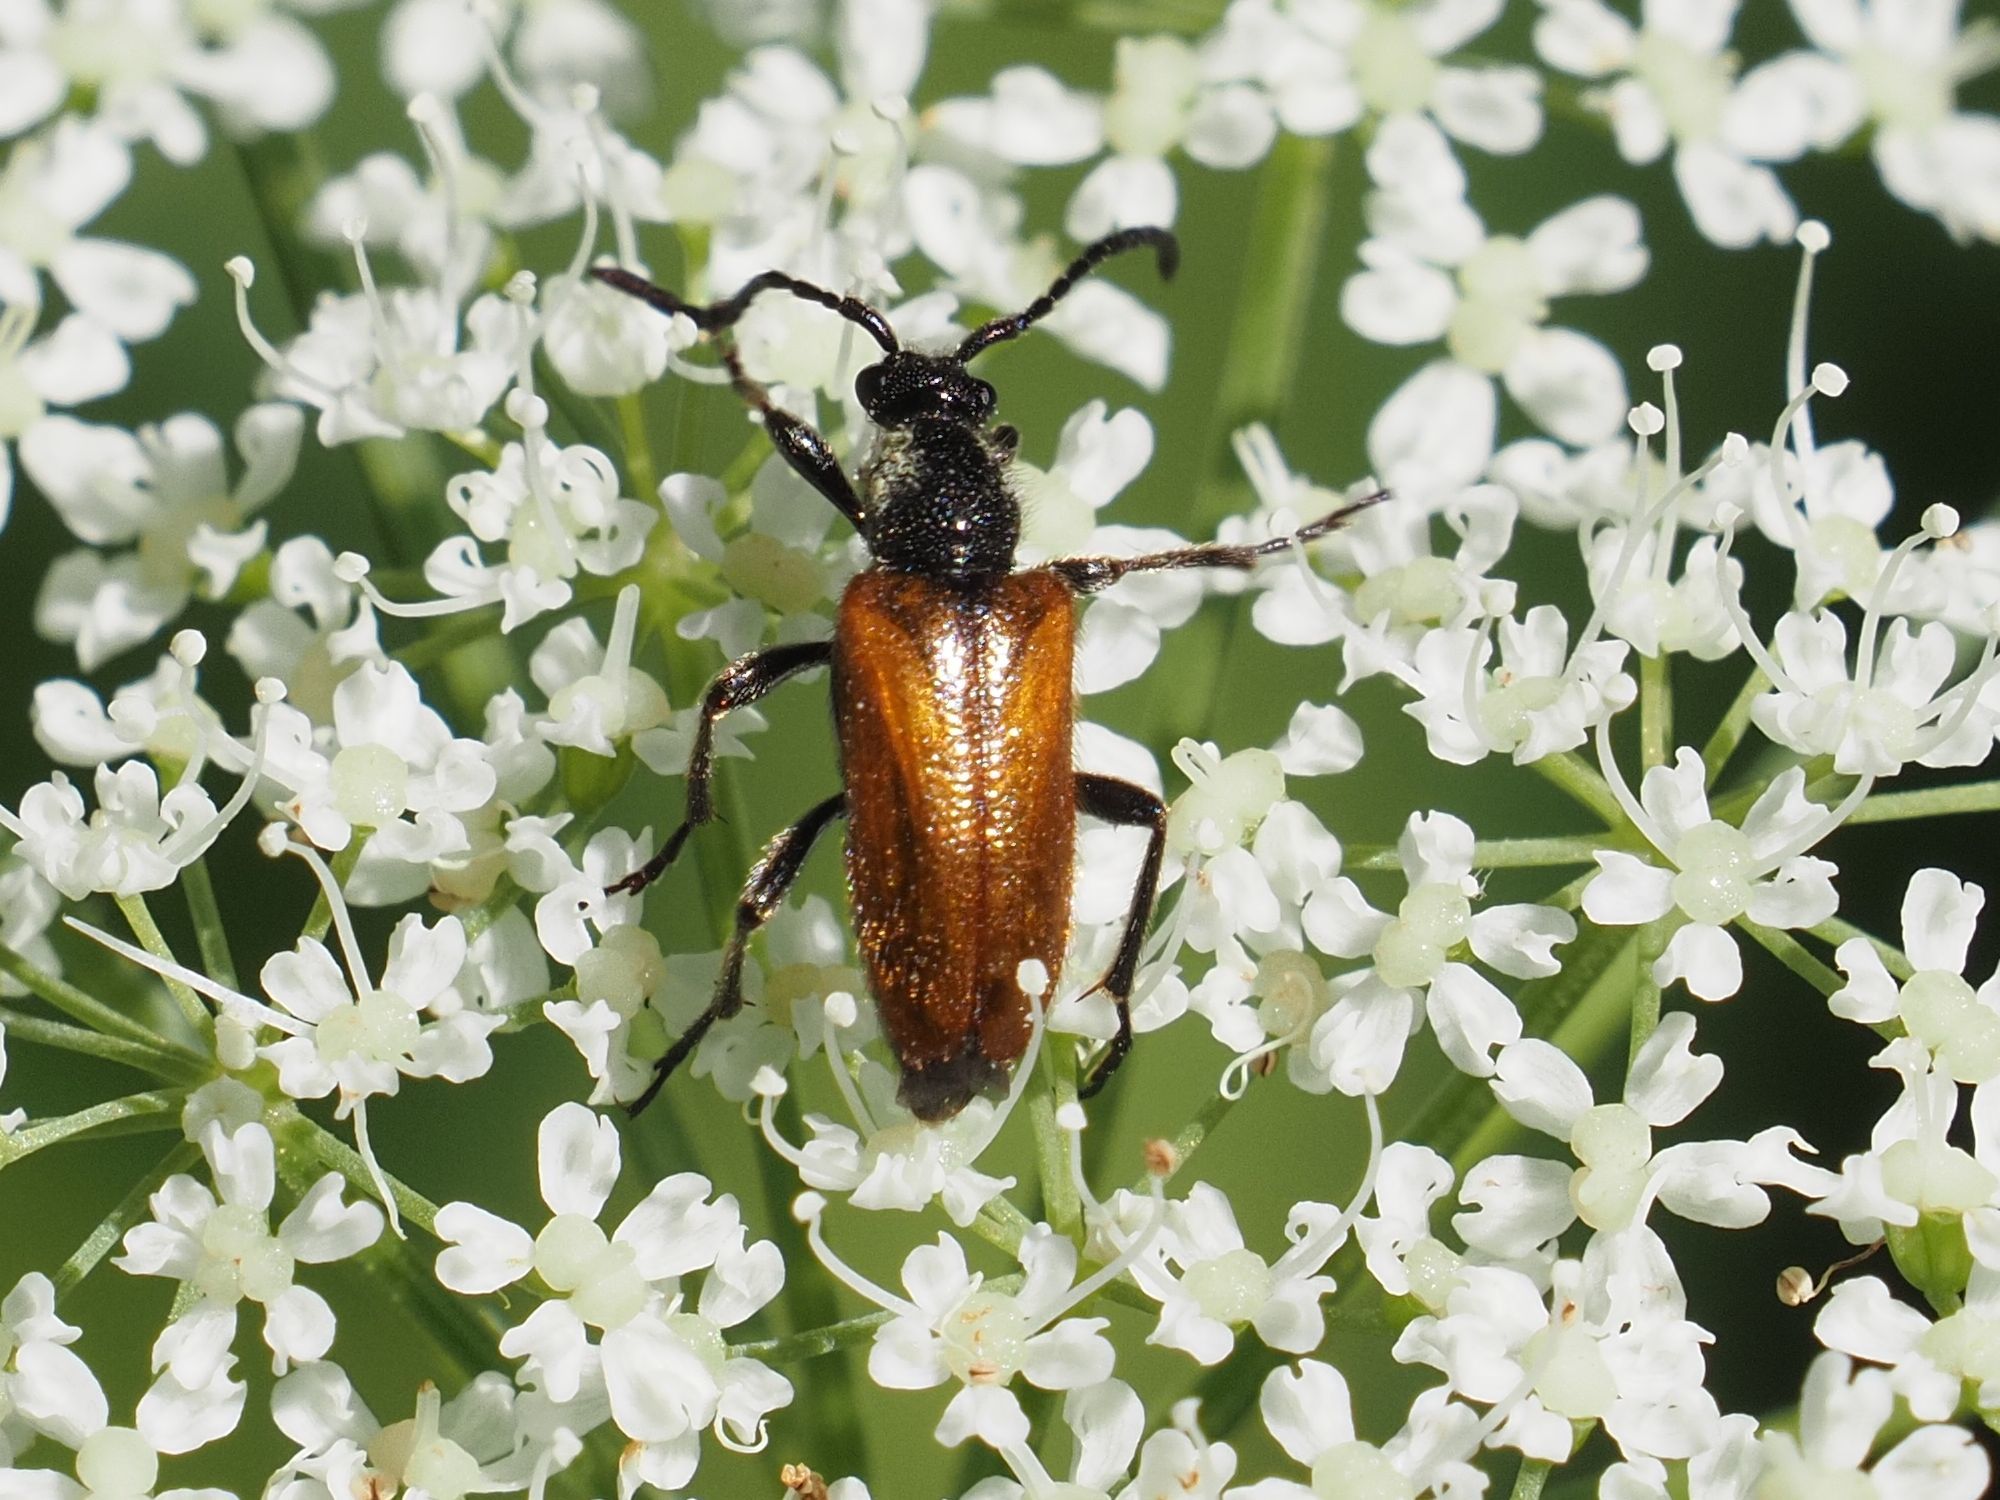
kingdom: Animalia
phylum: Arthropoda
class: Insecta
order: Coleoptera
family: Cerambycidae
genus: Pseudovadonia
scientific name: Pseudovadonia livida
